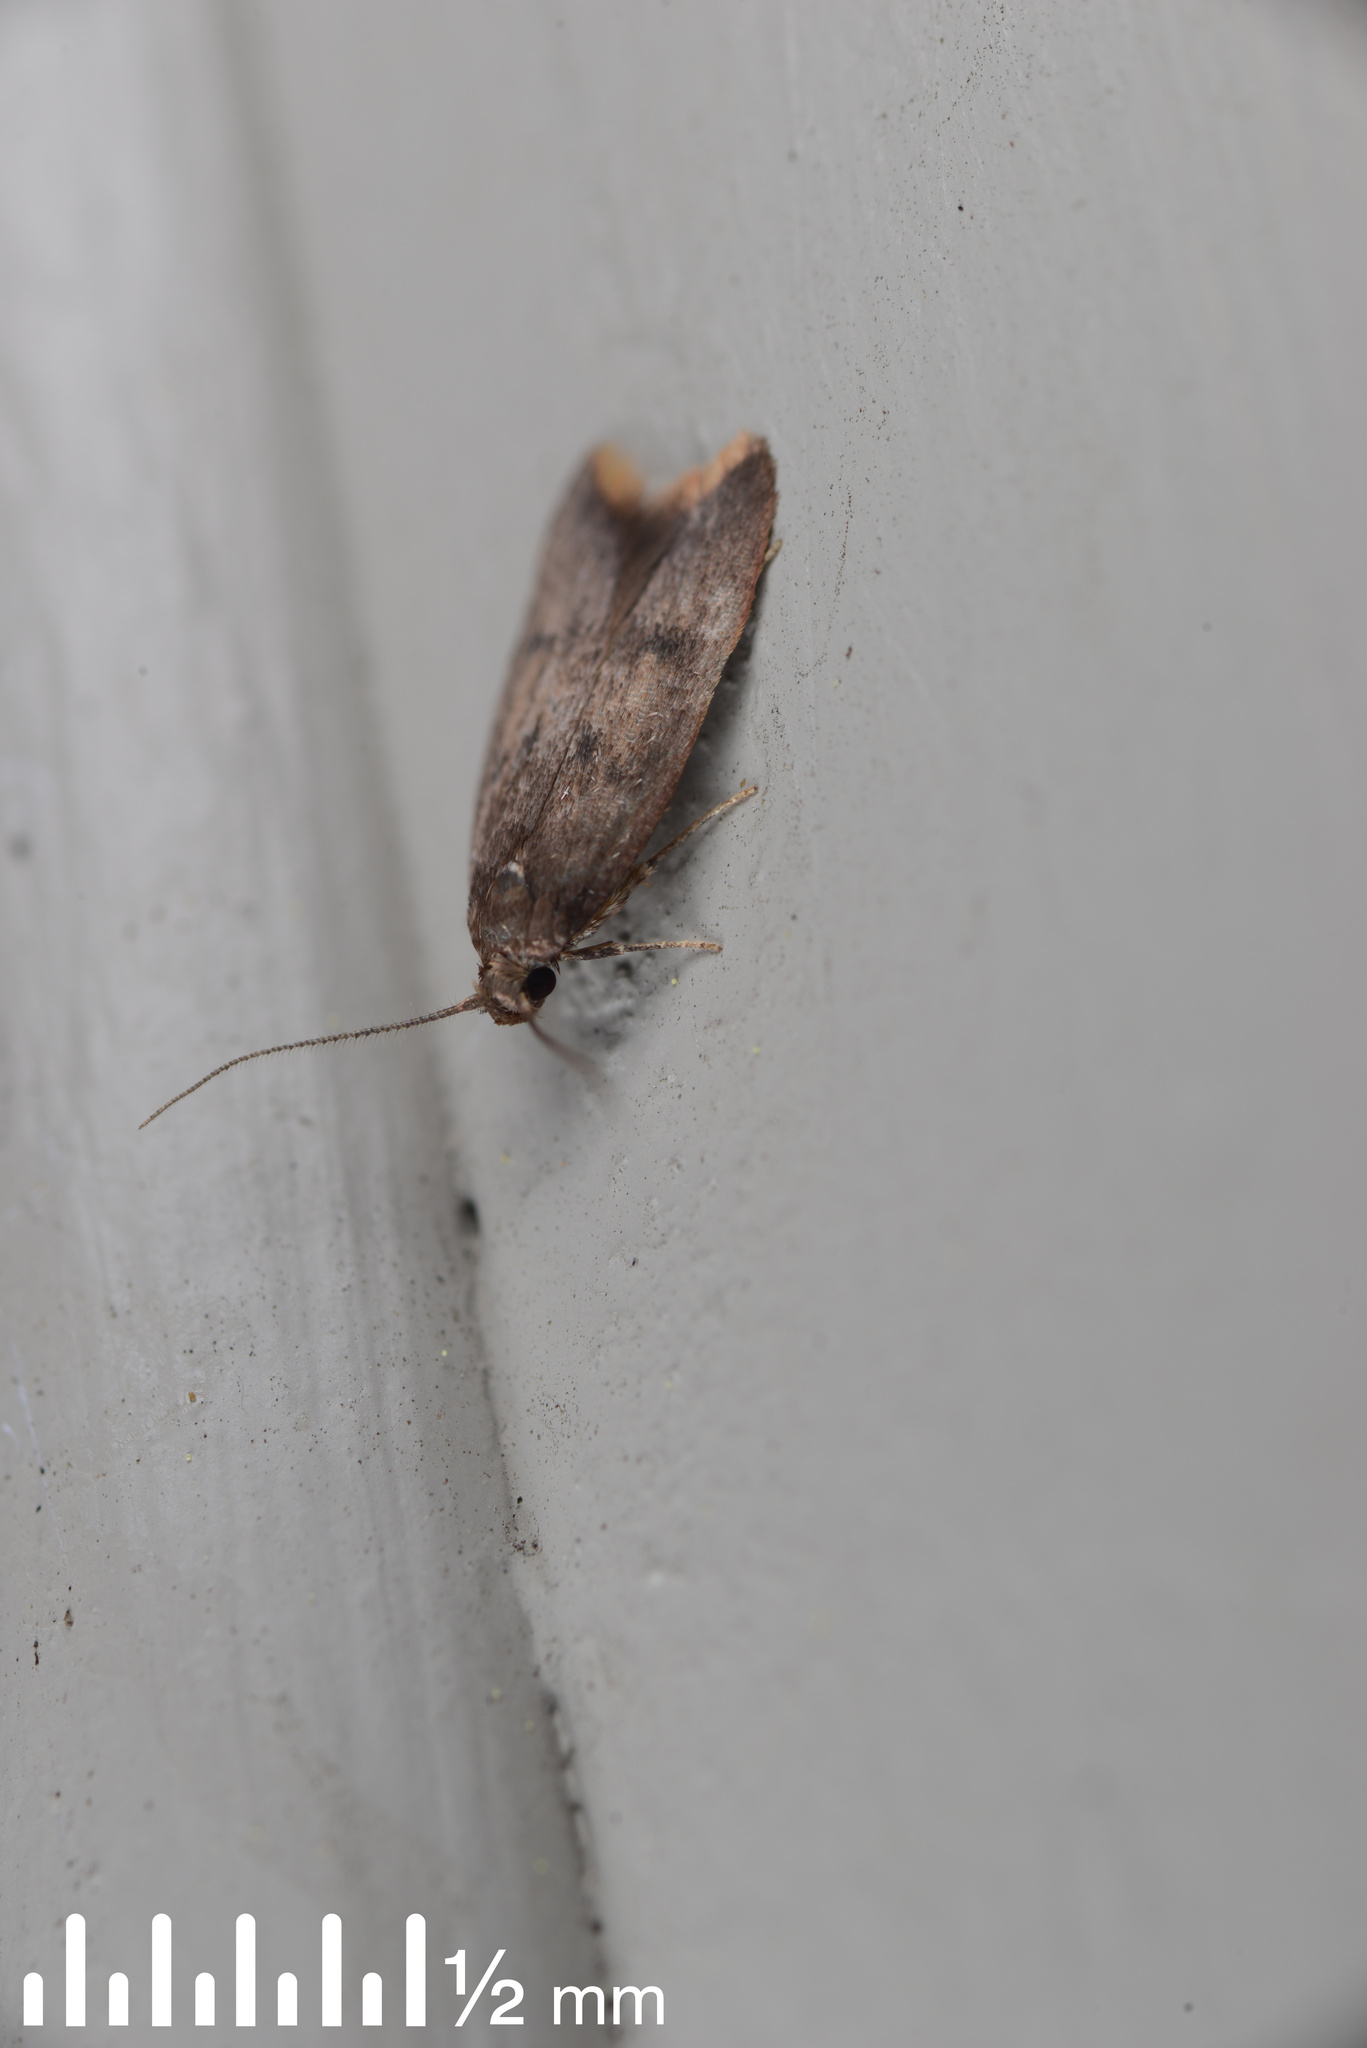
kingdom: Animalia
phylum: Arthropoda
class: Insecta
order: Lepidoptera
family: Oecophoridae
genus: Tachystola
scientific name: Tachystola acroxantha
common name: Ruddy streak
